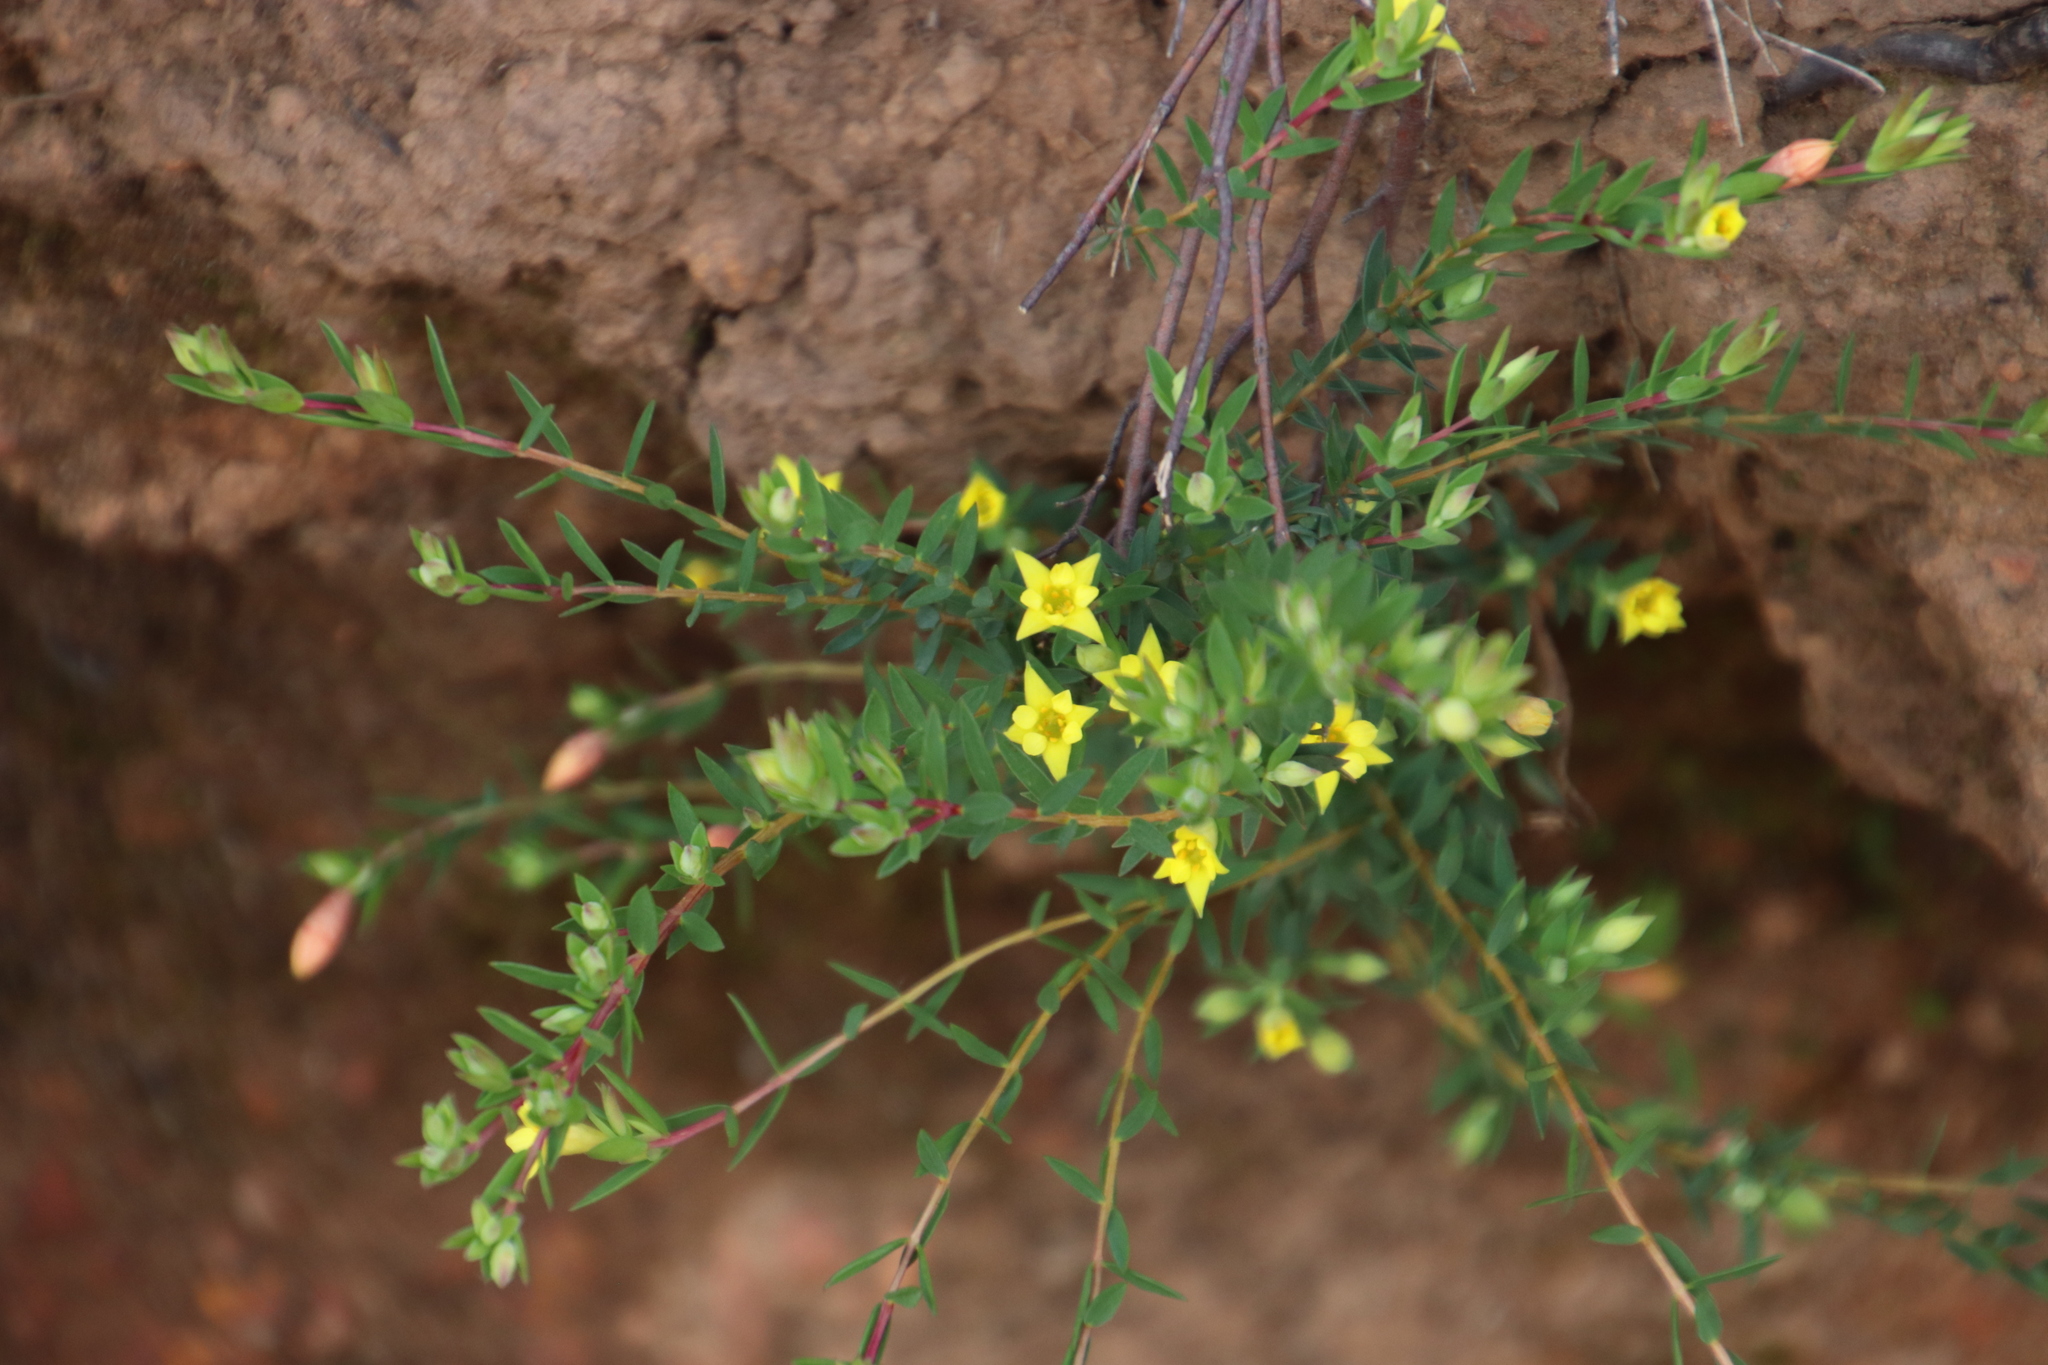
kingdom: Plantae
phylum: Tracheophyta
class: Magnoliopsida
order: Malvales
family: Thymelaeaceae
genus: Gnidia
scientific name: Gnidia juniperifolia
